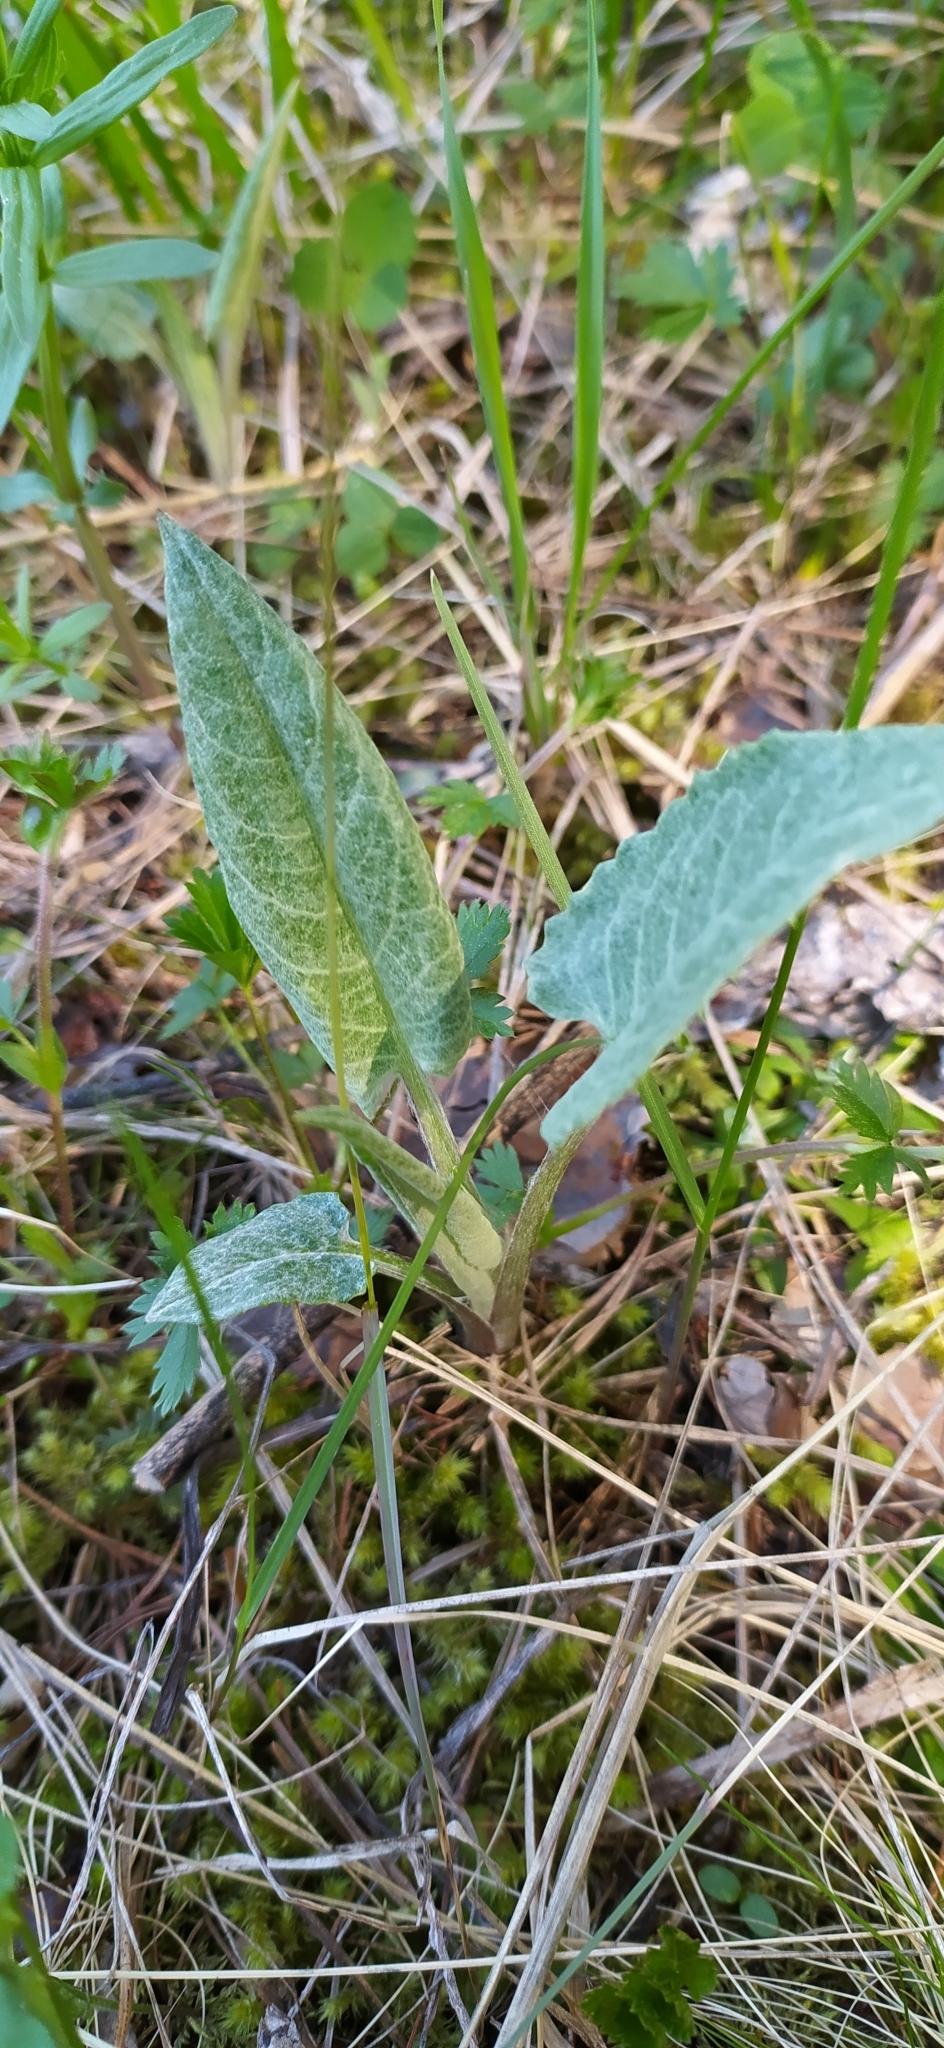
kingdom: Plantae
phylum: Tracheophyta
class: Magnoliopsida
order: Asterales
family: Asteraceae
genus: Saussurea
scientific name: Saussurea controversa
